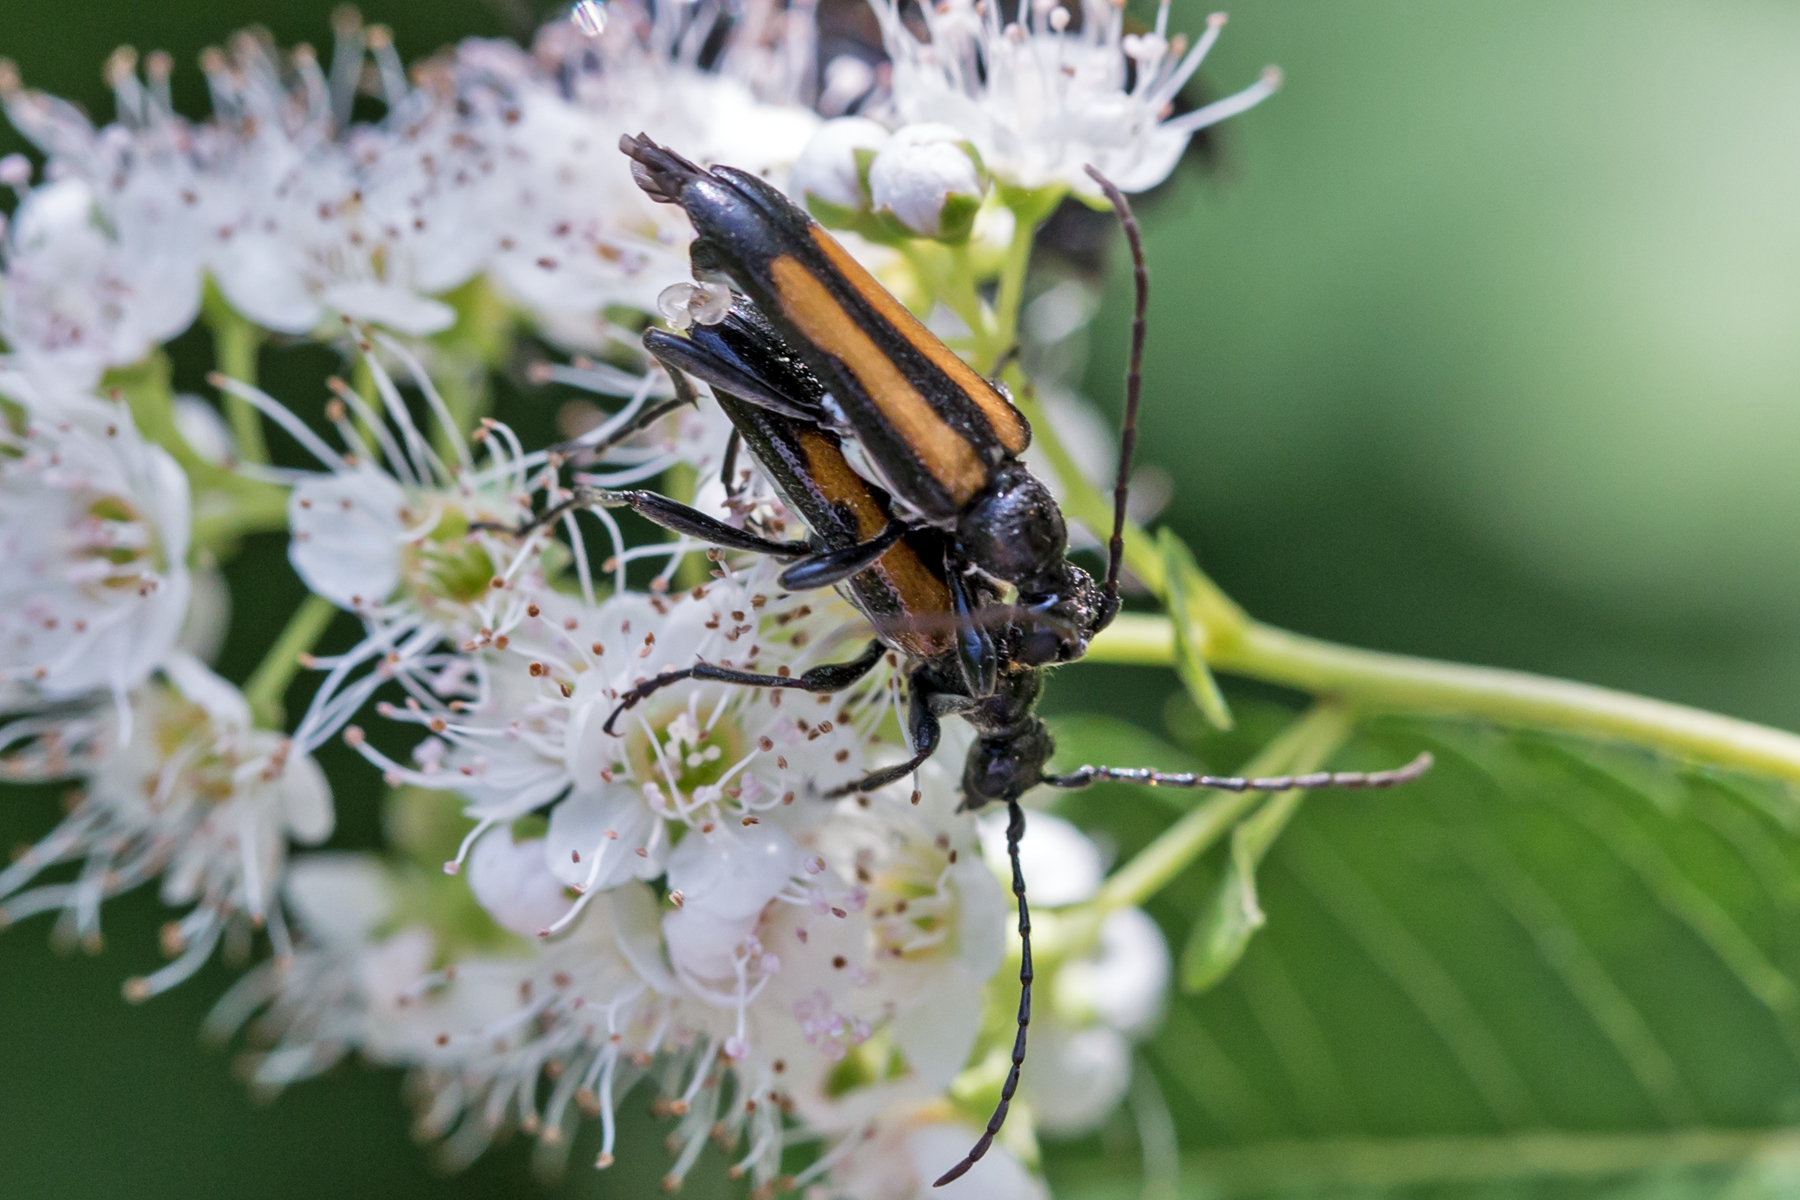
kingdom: Animalia
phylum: Arthropoda
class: Insecta
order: Coleoptera
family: Cerambycidae
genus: Strangalepta
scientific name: Strangalepta abbreviata
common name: Strangalepta flower longhorn beetle
